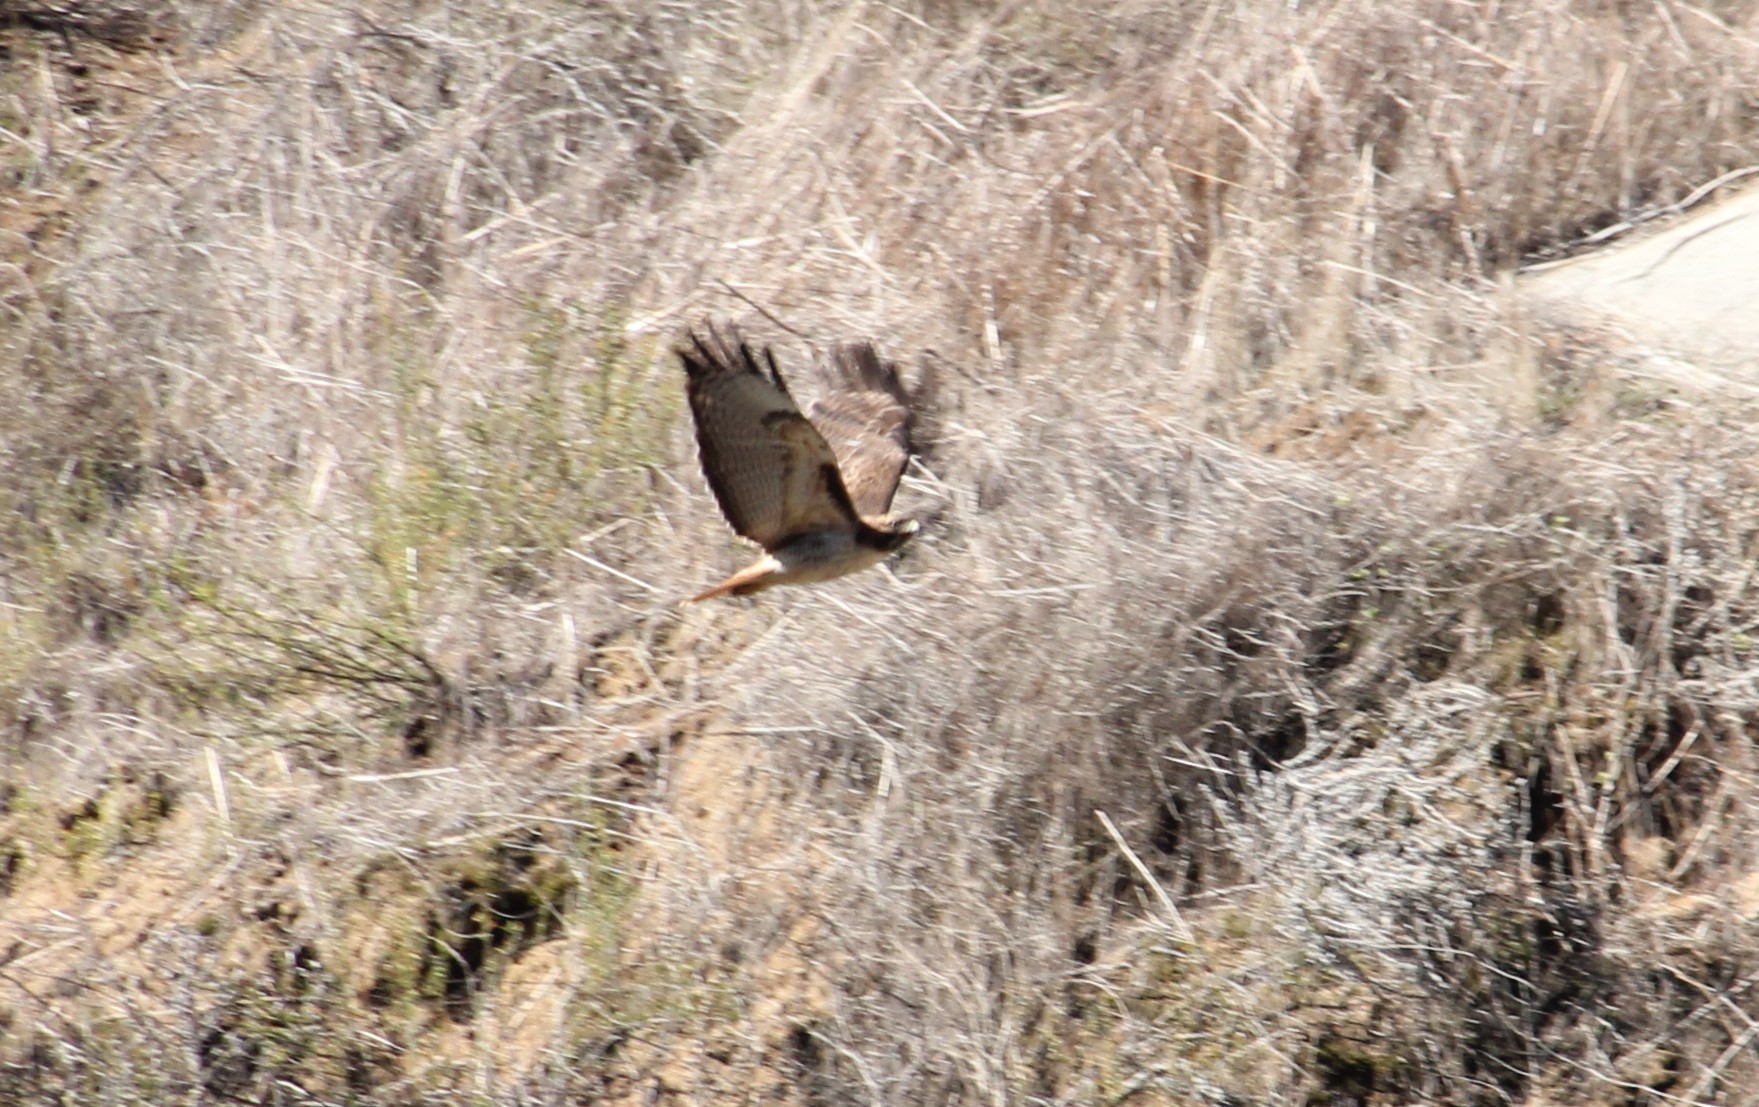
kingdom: Animalia
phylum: Chordata
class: Aves
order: Accipitriformes
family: Accipitridae
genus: Buteo
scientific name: Buteo jamaicensis
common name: Red-tailed hawk
